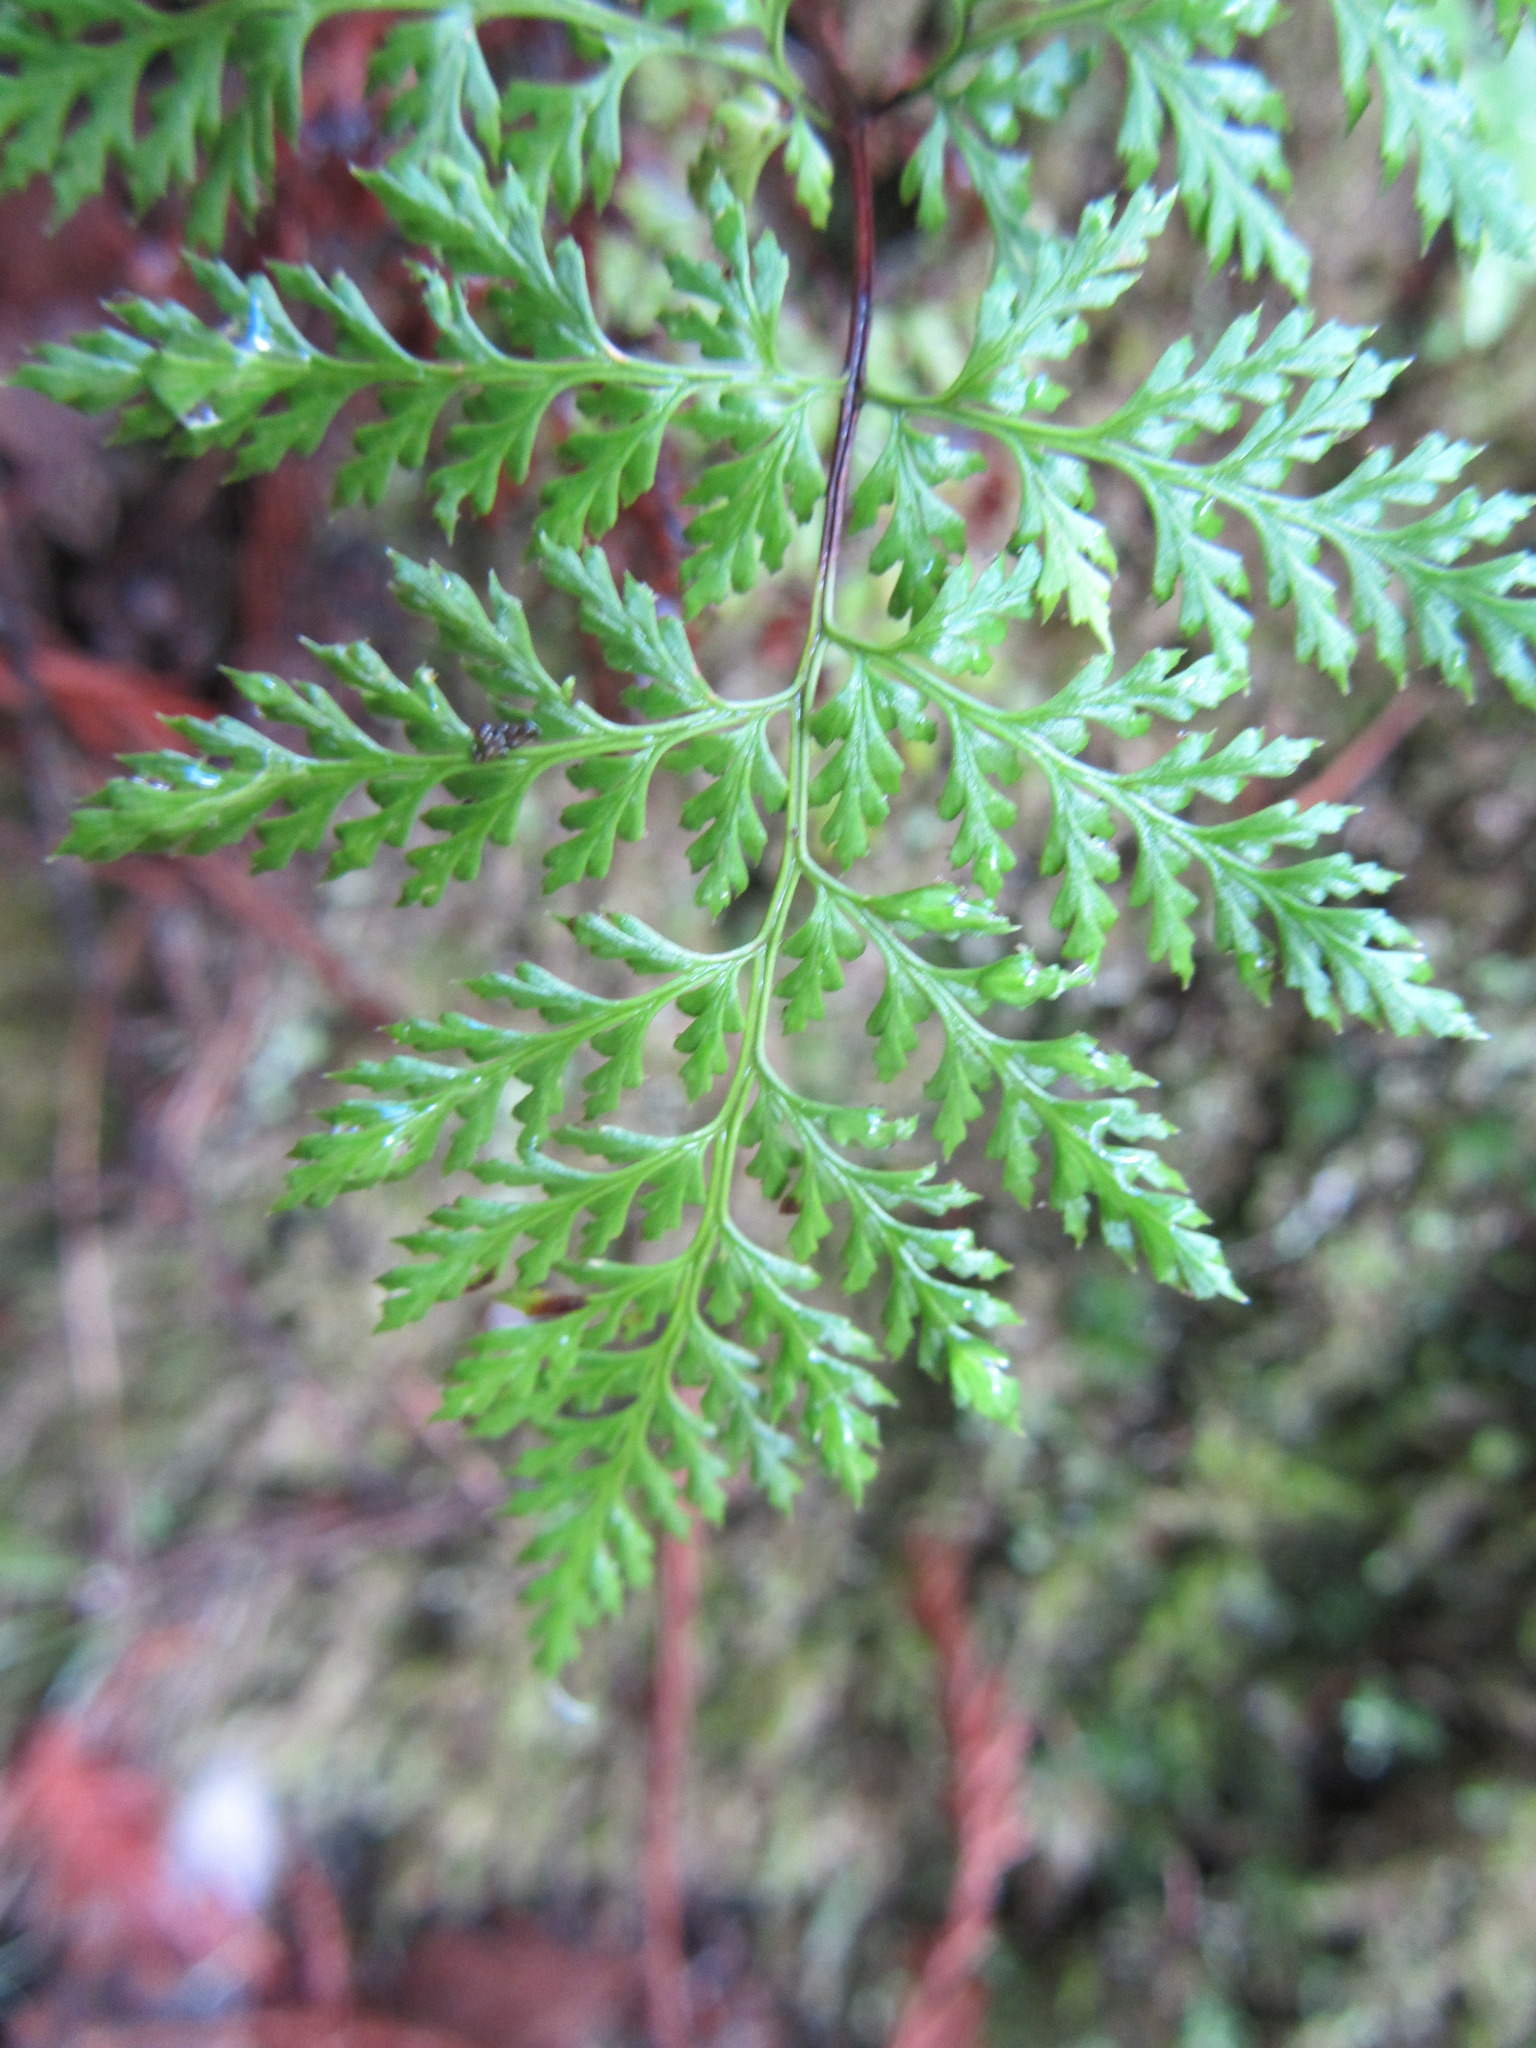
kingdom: Plantae
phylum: Tracheophyta
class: Polypodiopsida
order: Polypodiales
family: Pteridaceae
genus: Aspidotis
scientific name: Aspidotis californica
